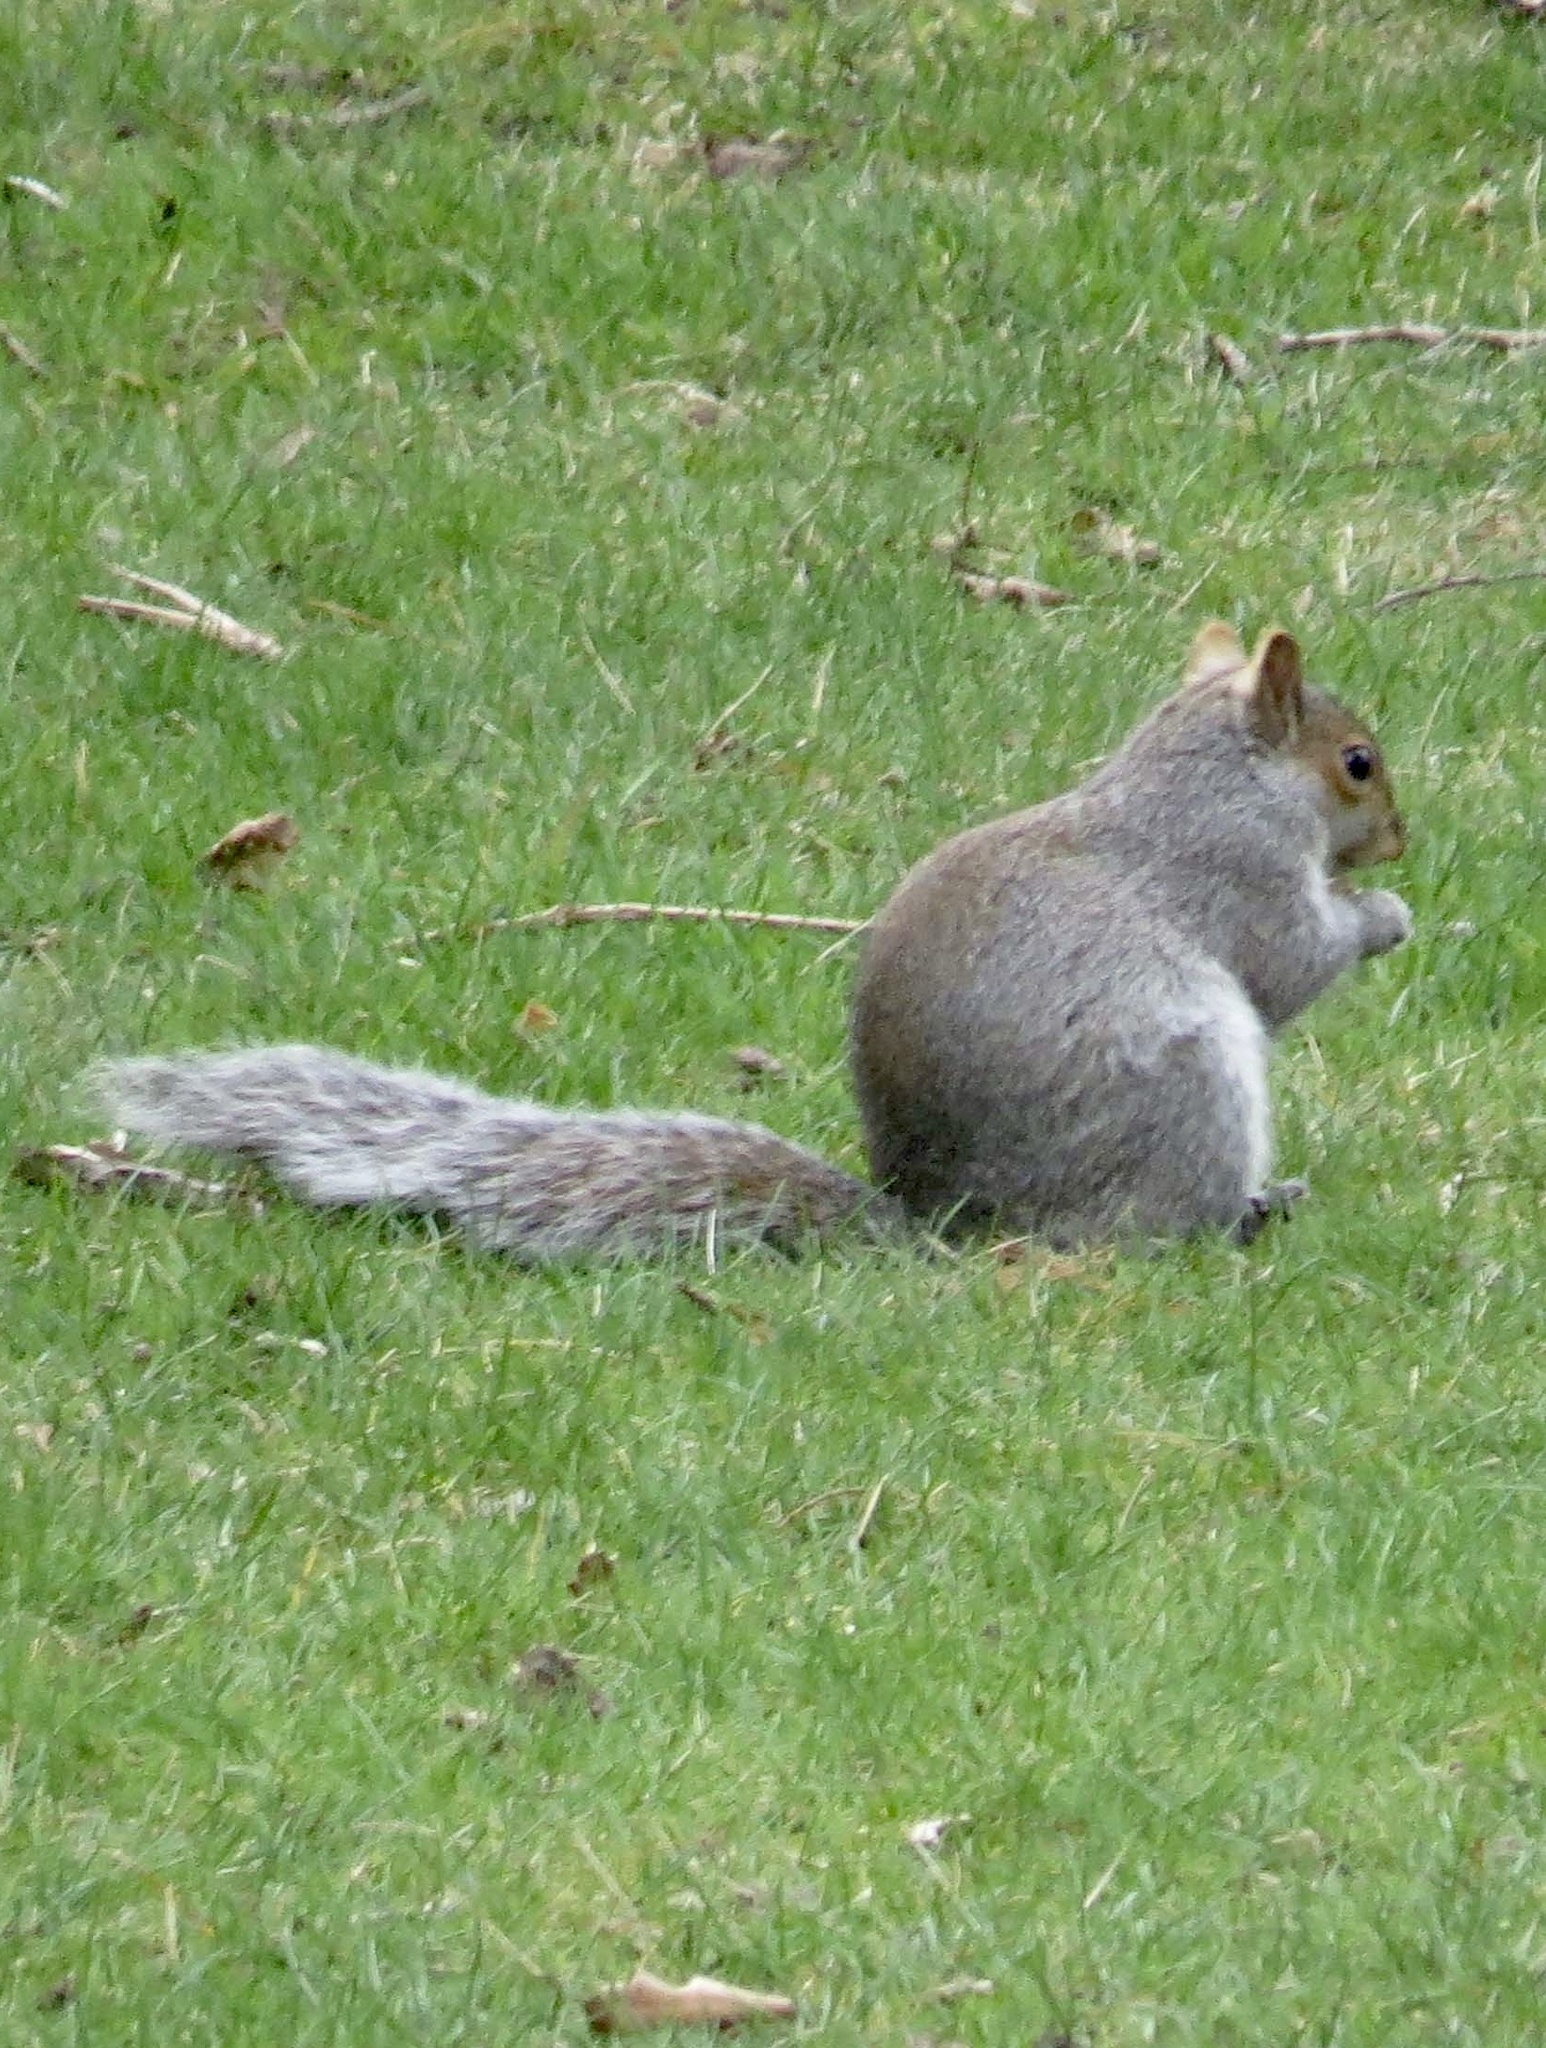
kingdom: Animalia
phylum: Chordata
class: Mammalia
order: Rodentia
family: Sciuridae
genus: Sciurus
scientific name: Sciurus carolinensis
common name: Eastern gray squirrel
